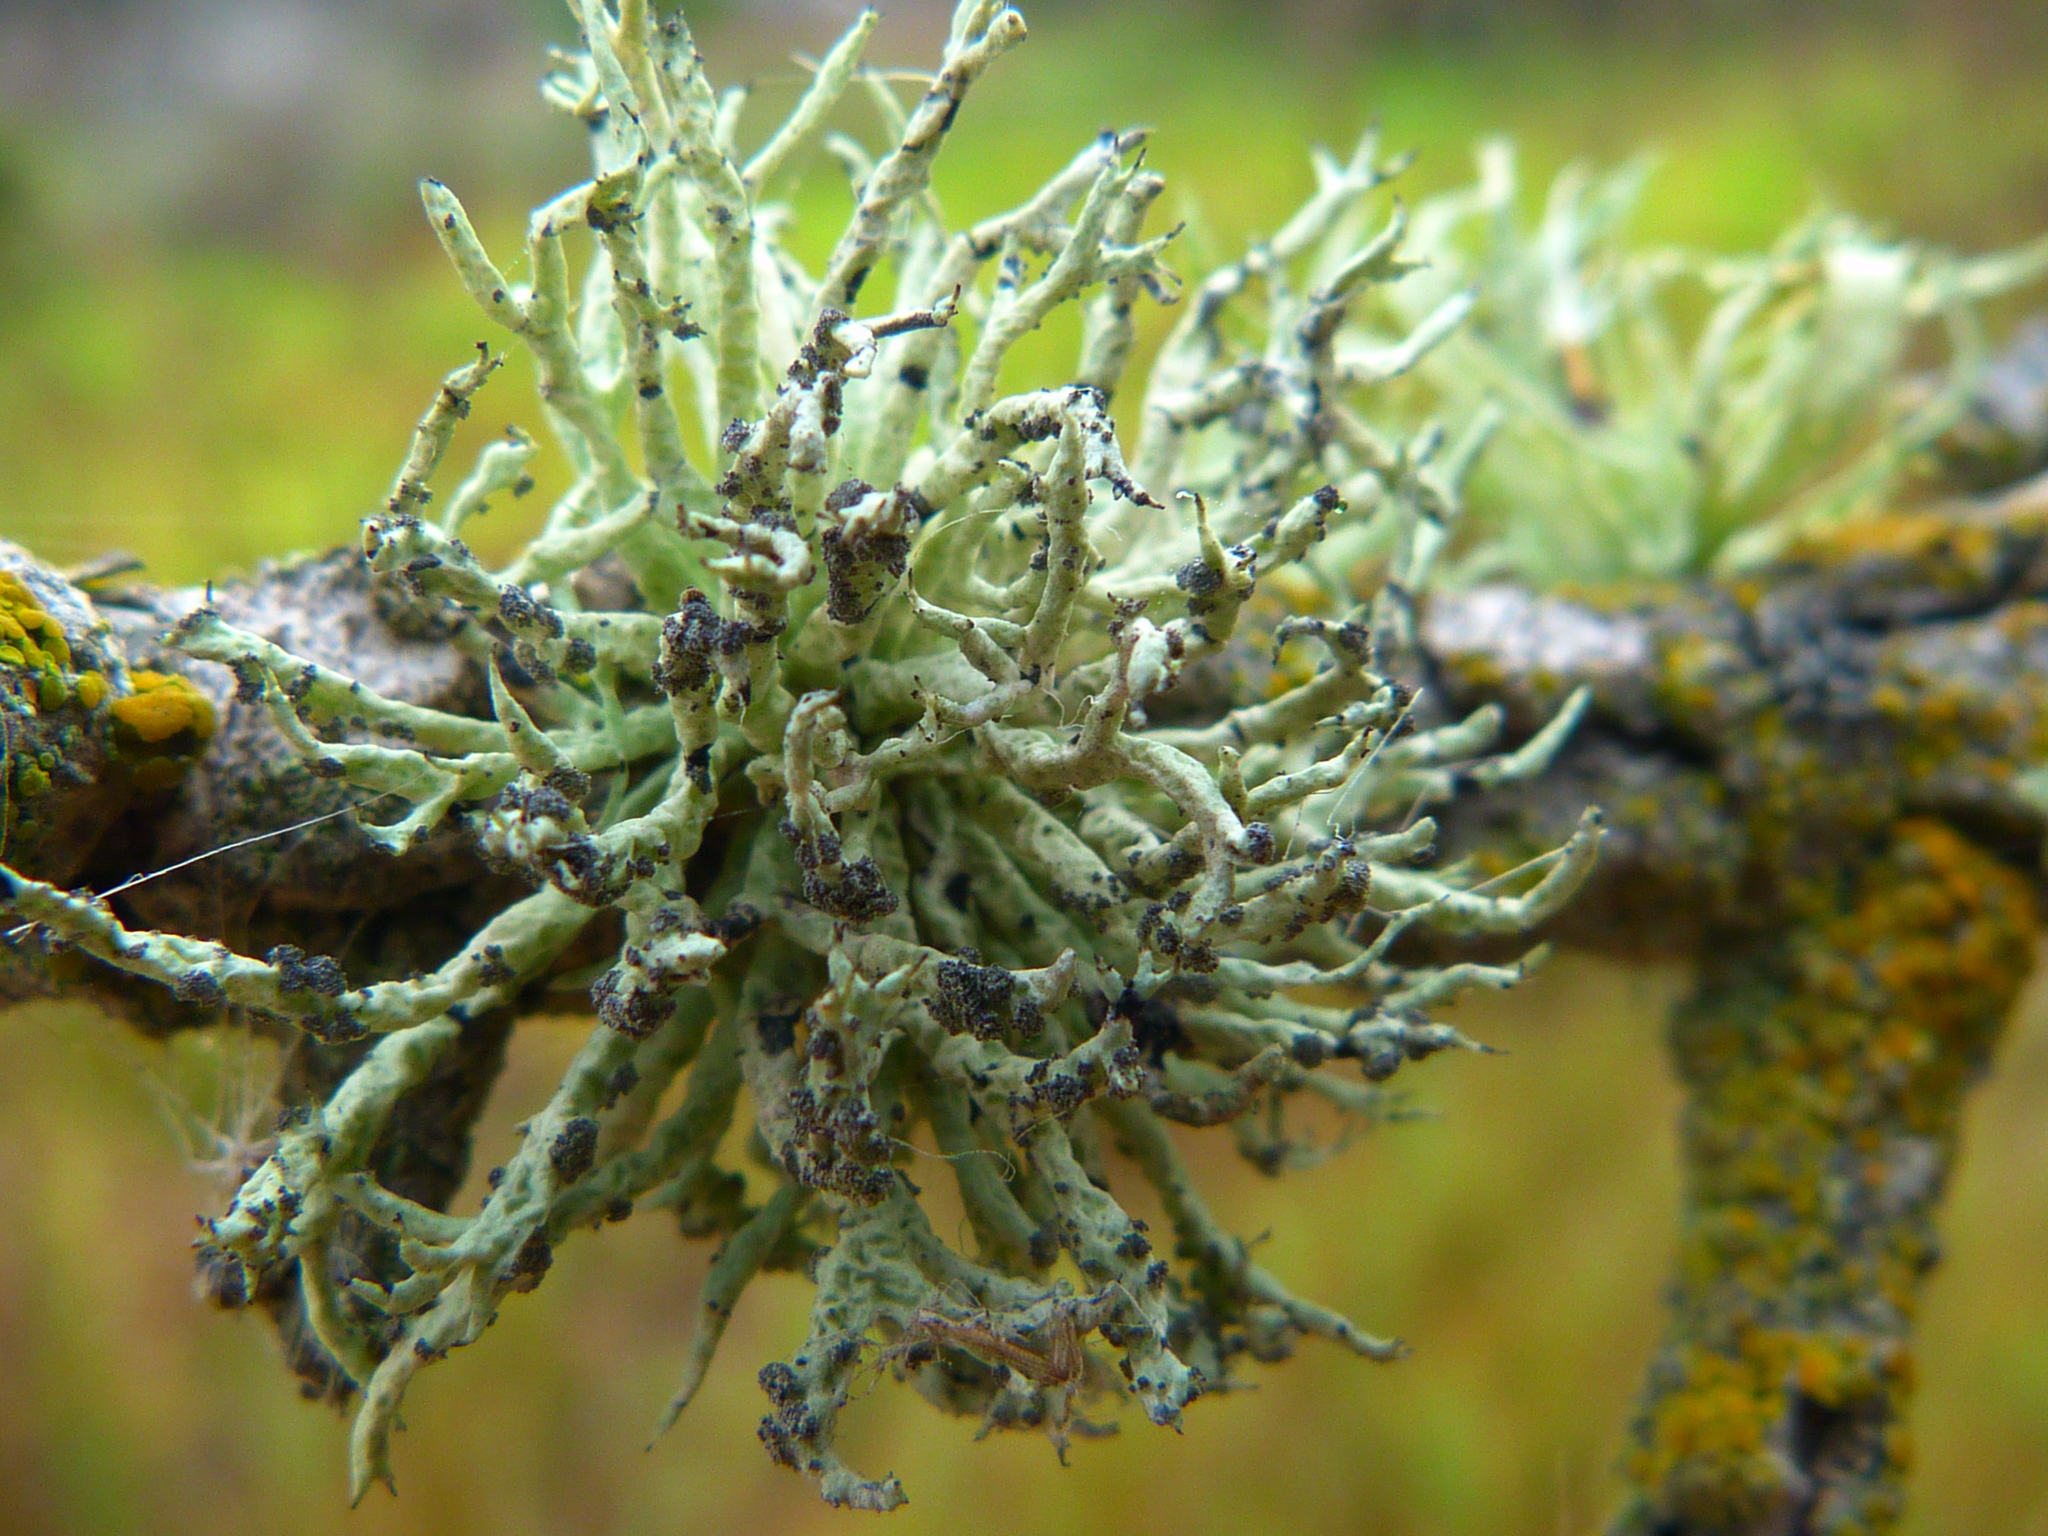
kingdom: Fungi
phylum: Ascomycota
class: Lecanoromycetes
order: Lecanorales
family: Ramalinaceae
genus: Niebla
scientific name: Niebla cephalota
